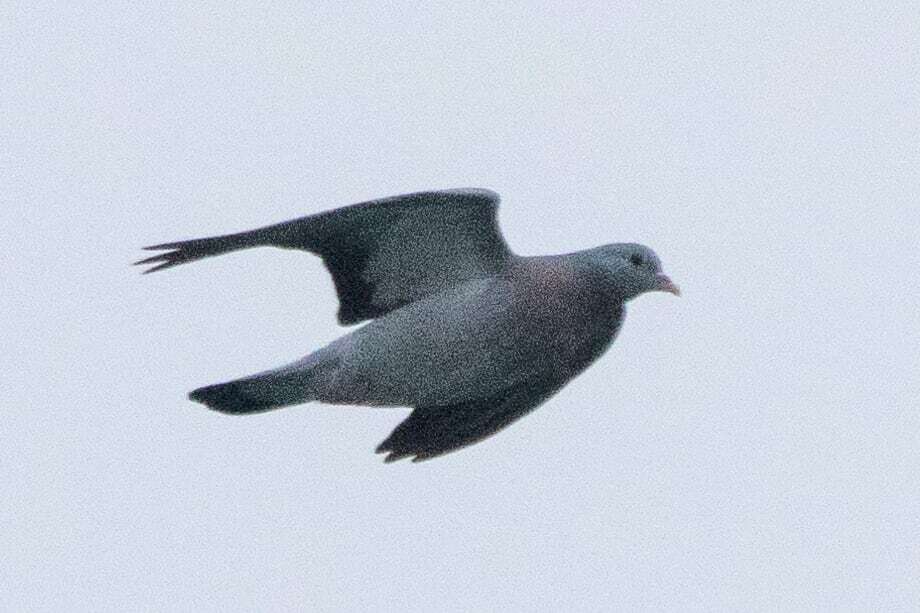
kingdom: Animalia
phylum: Chordata
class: Aves
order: Columbiformes
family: Columbidae
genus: Columba
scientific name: Columba oenas
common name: Stock dove
